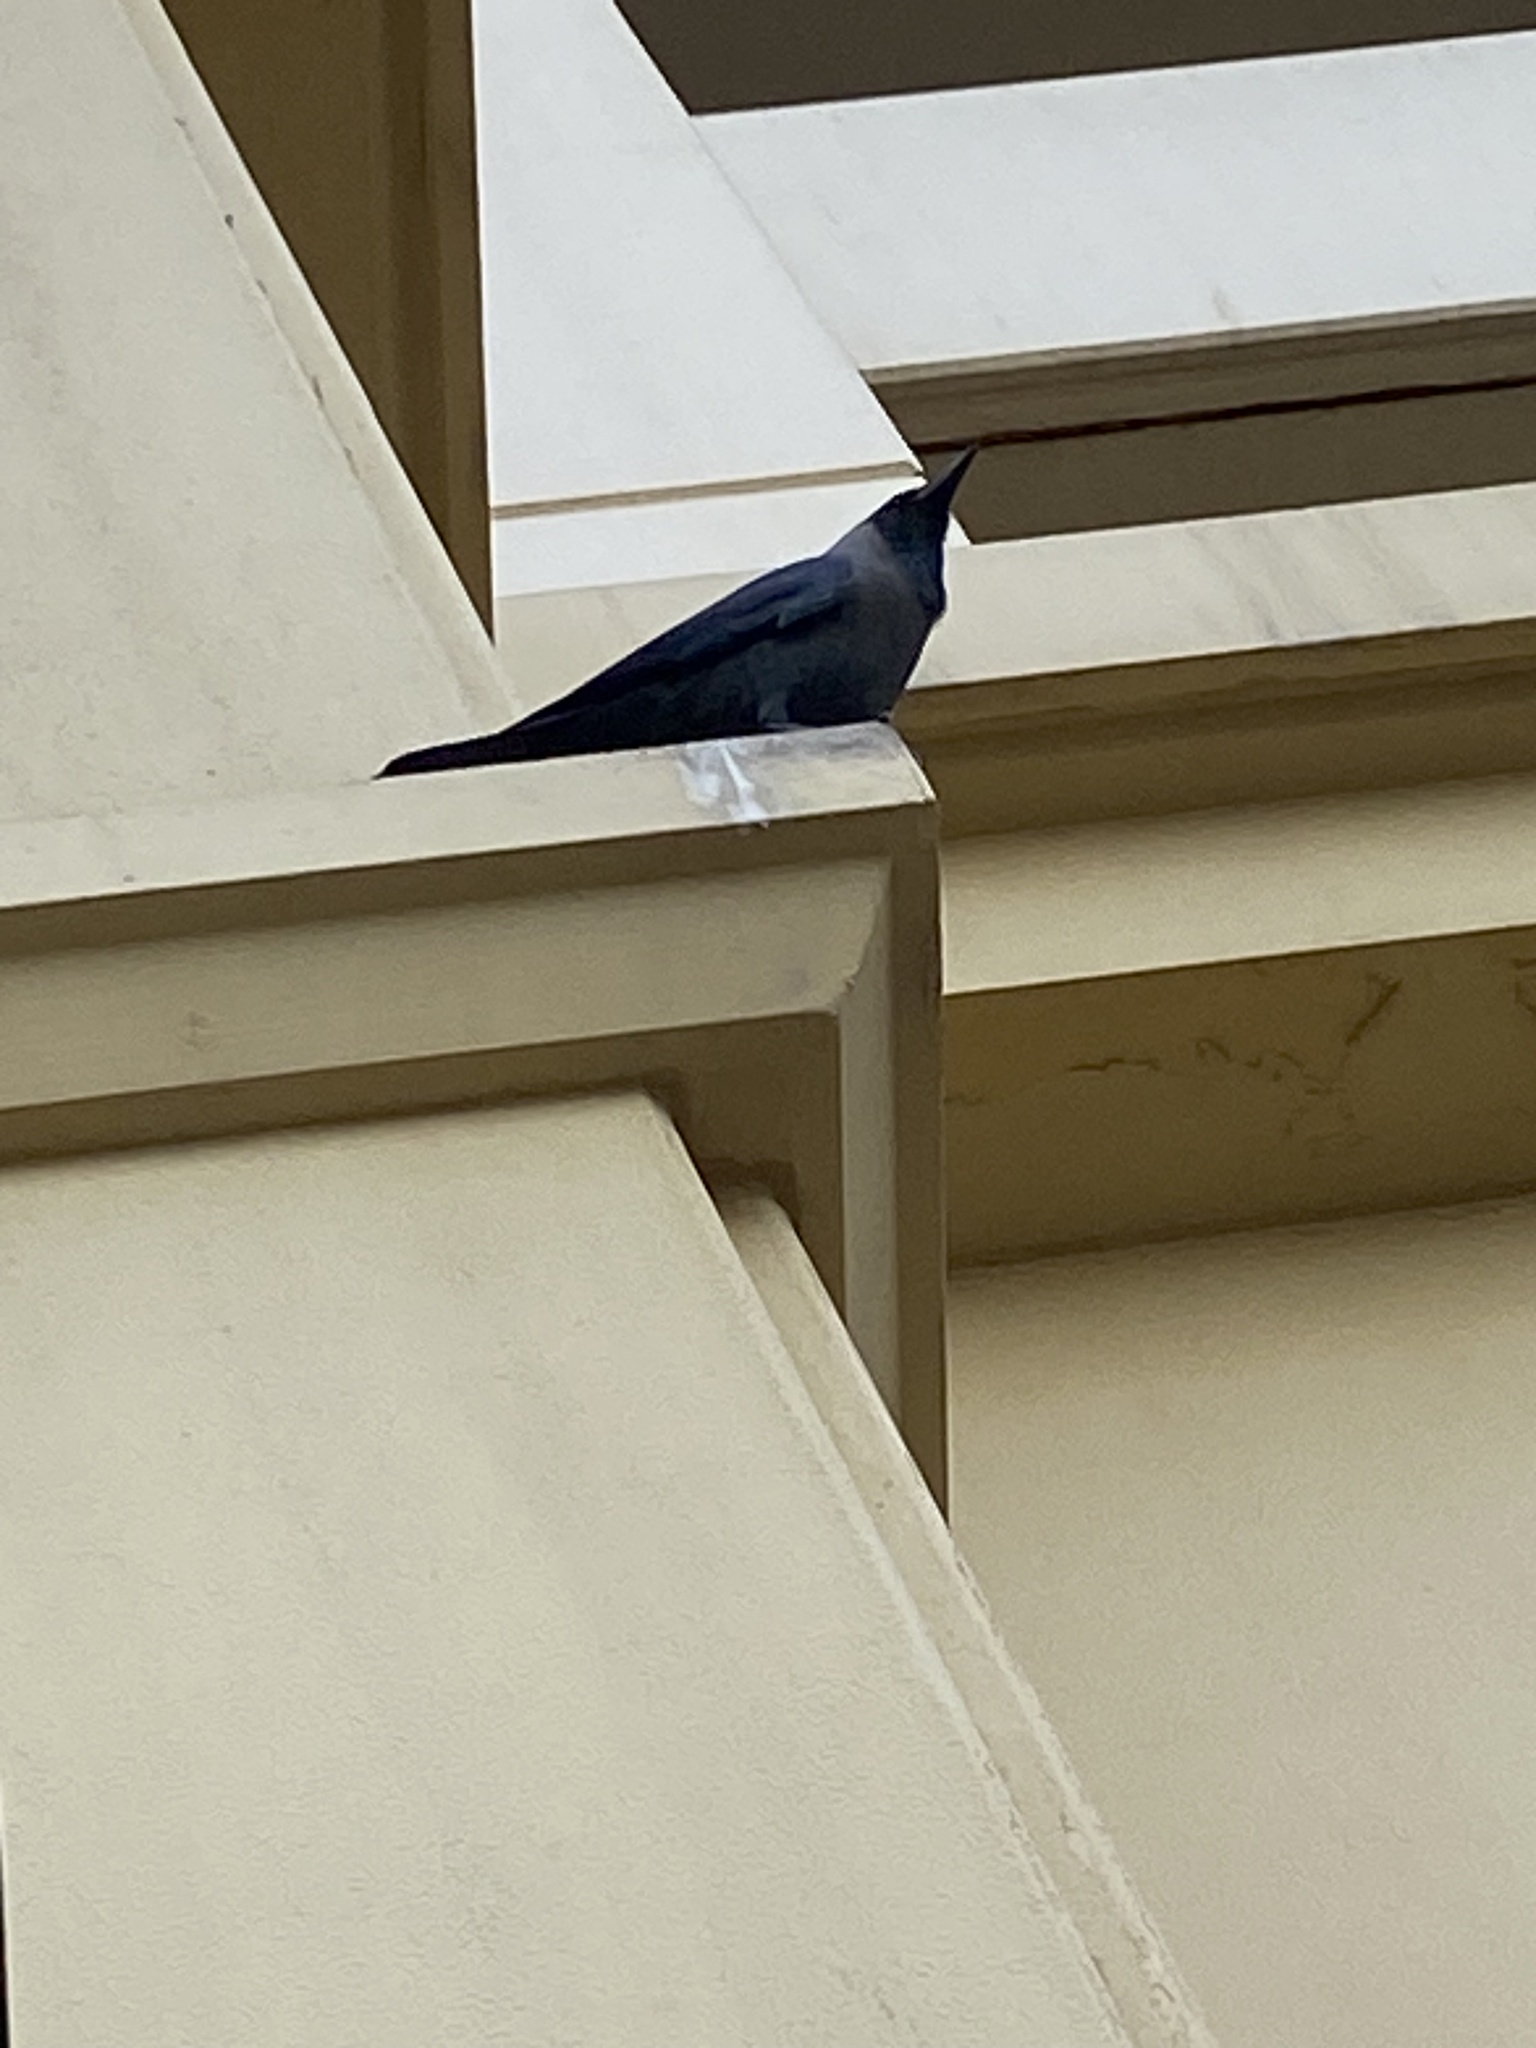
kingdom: Animalia
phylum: Chordata
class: Aves
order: Passeriformes
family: Corvidae
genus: Corvus
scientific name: Corvus splendens
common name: House crow
